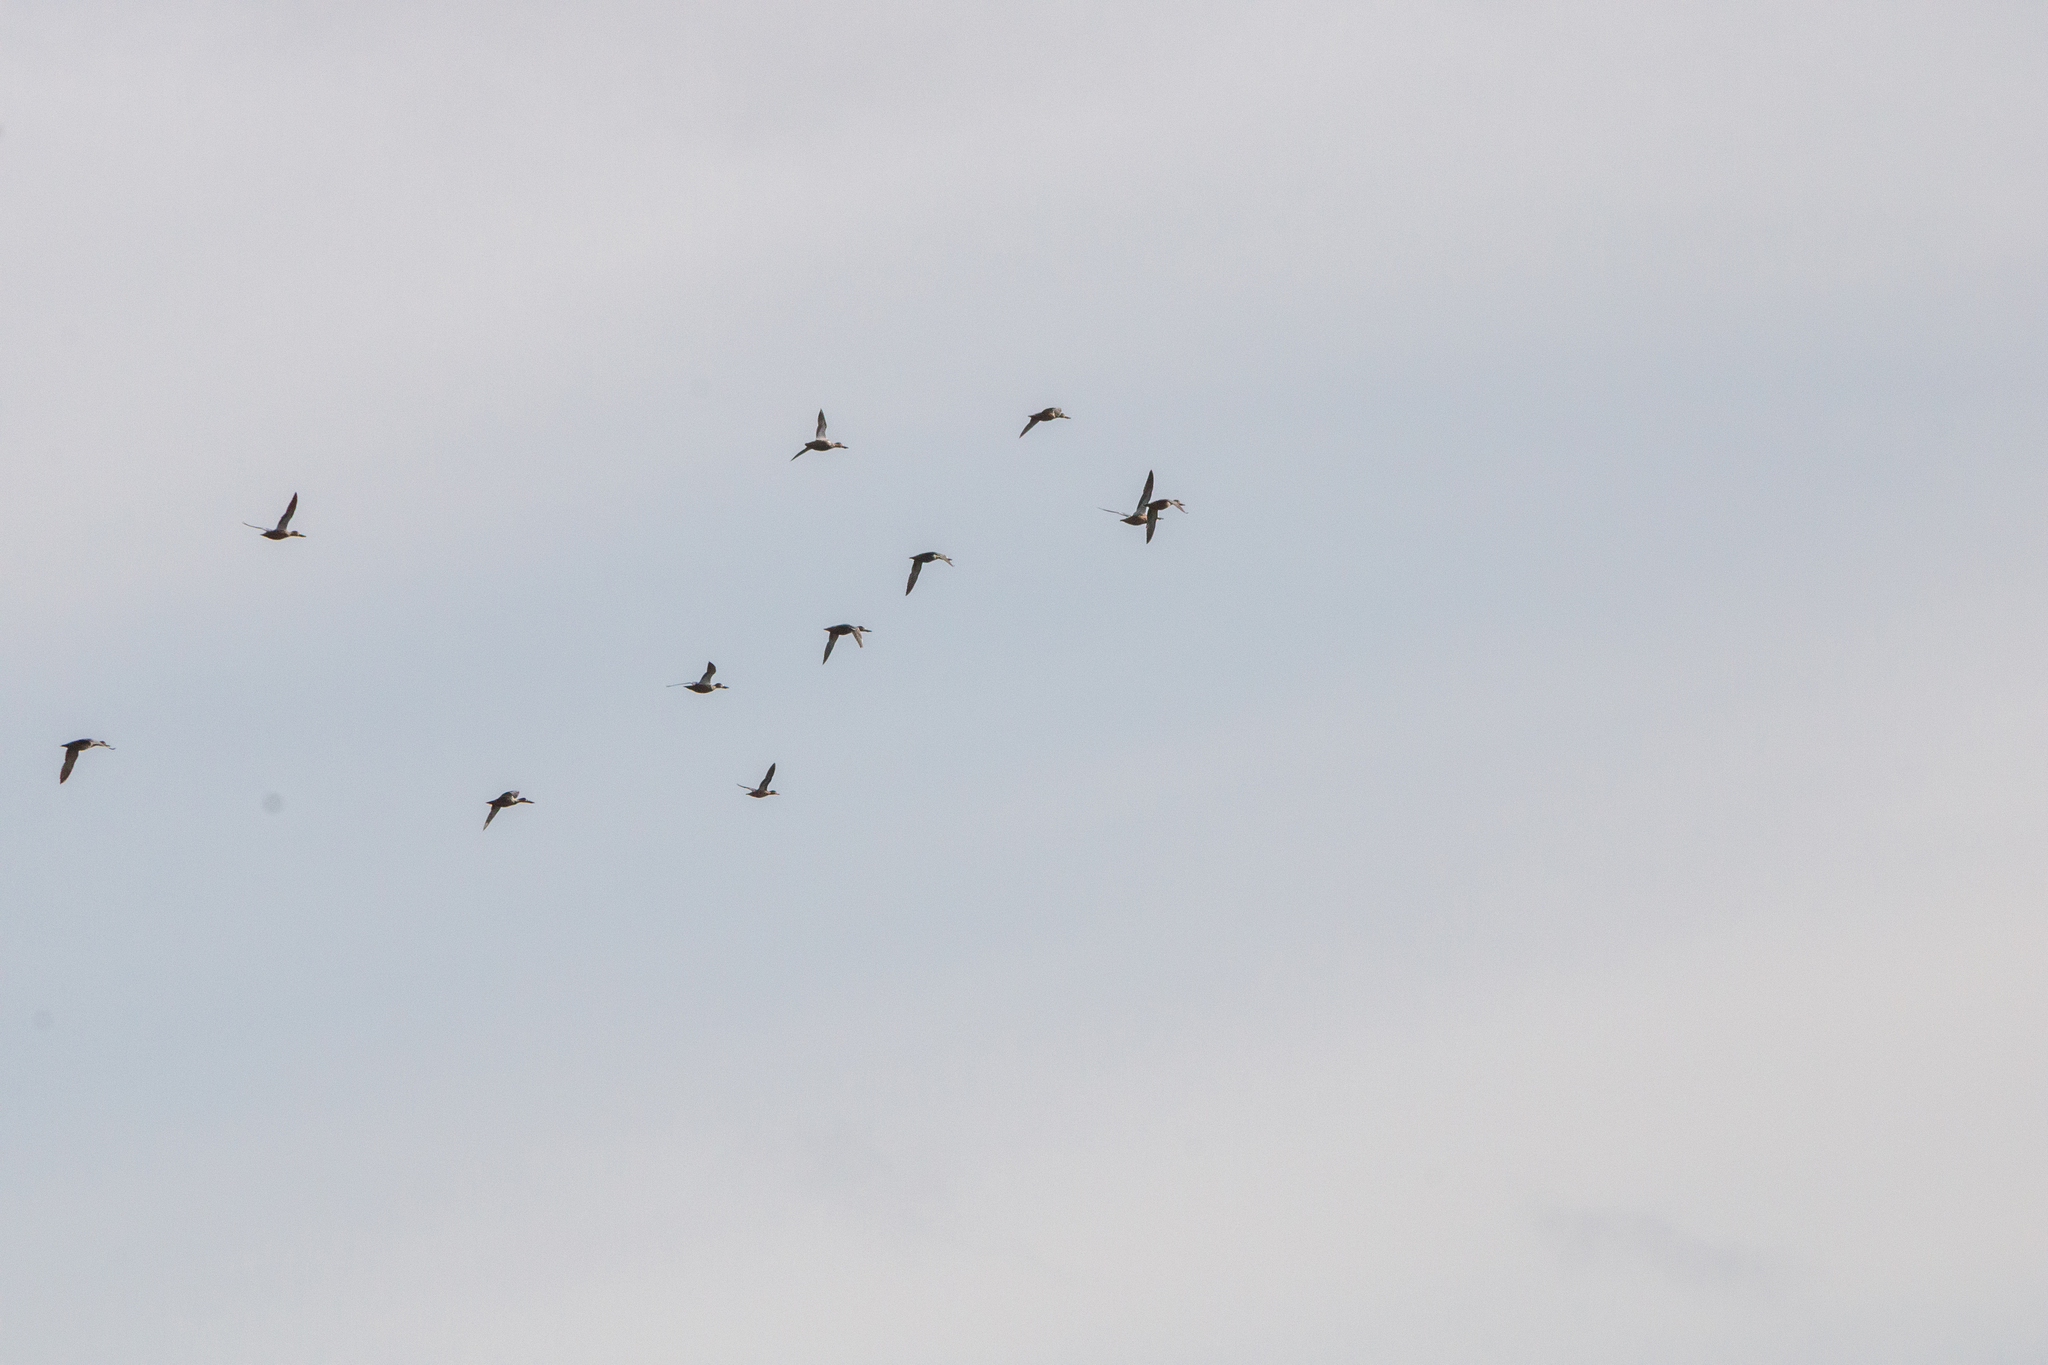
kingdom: Animalia
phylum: Chordata
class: Aves
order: Anseriformes
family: Anatidae
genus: Spatula
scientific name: Spatula clypeata
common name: Northern shoveler
